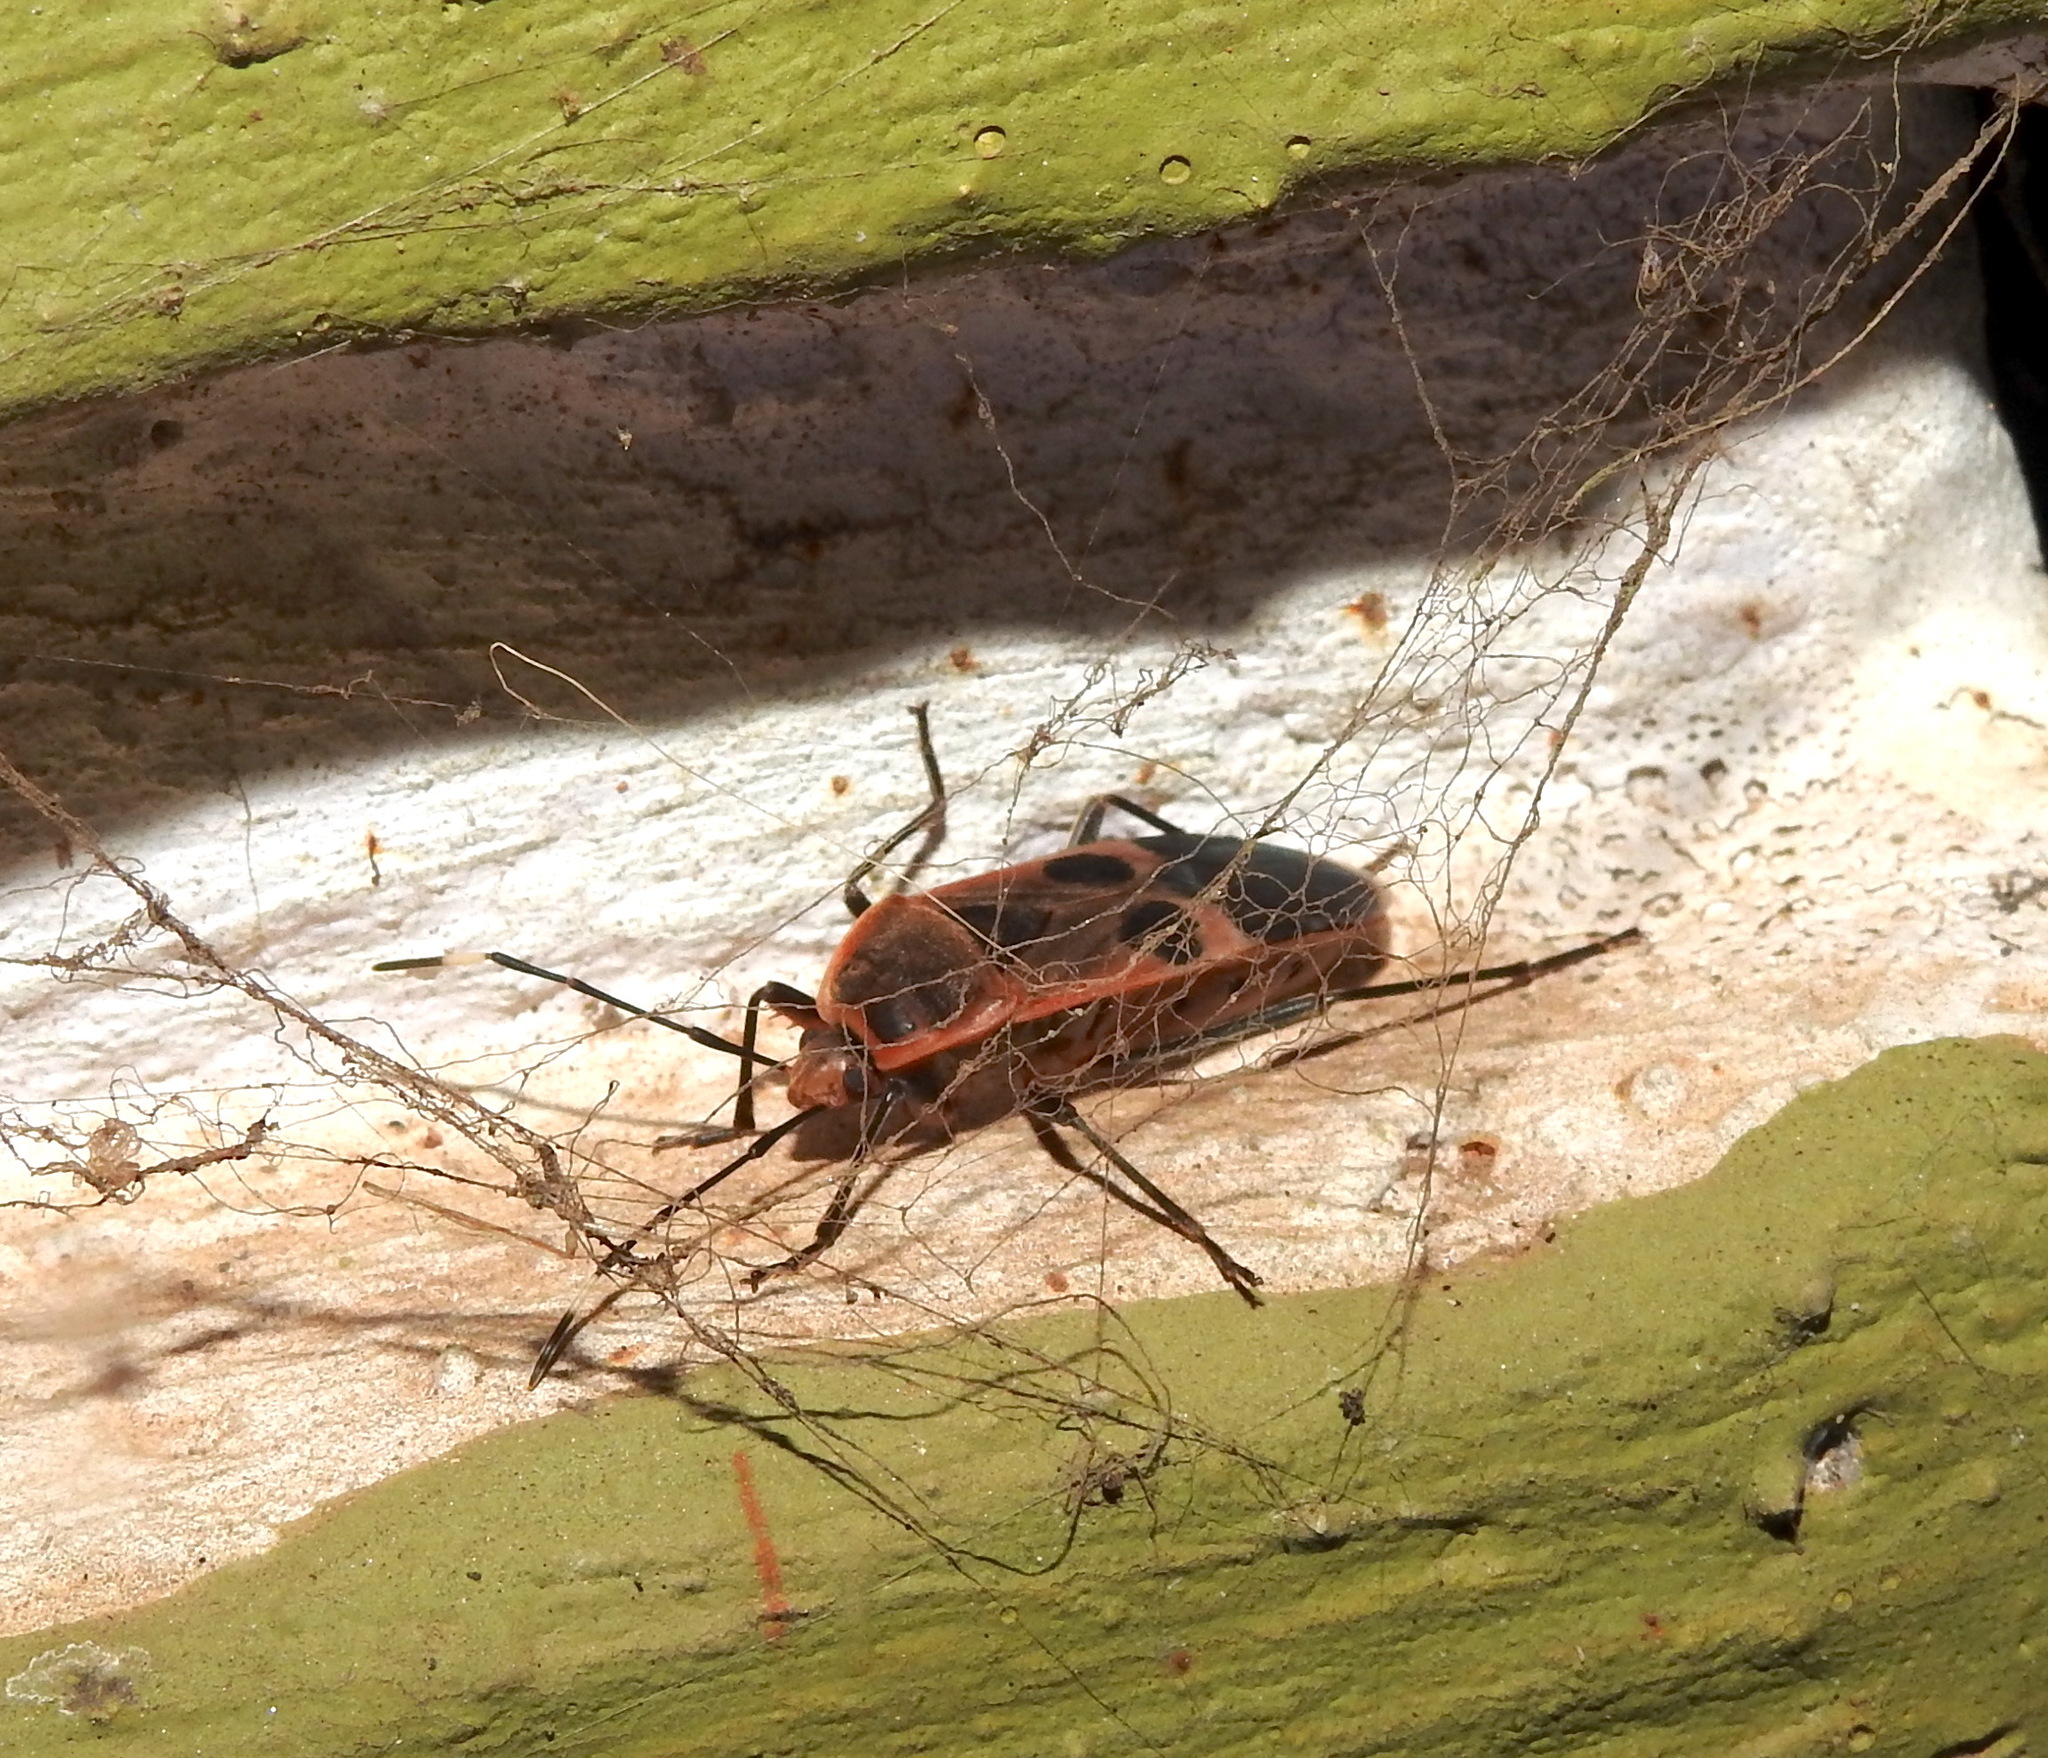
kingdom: Animalia
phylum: Arthropoda
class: Insecta
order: Hemiptera
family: Largidae
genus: Physopelta
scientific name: Physopelta gutta
